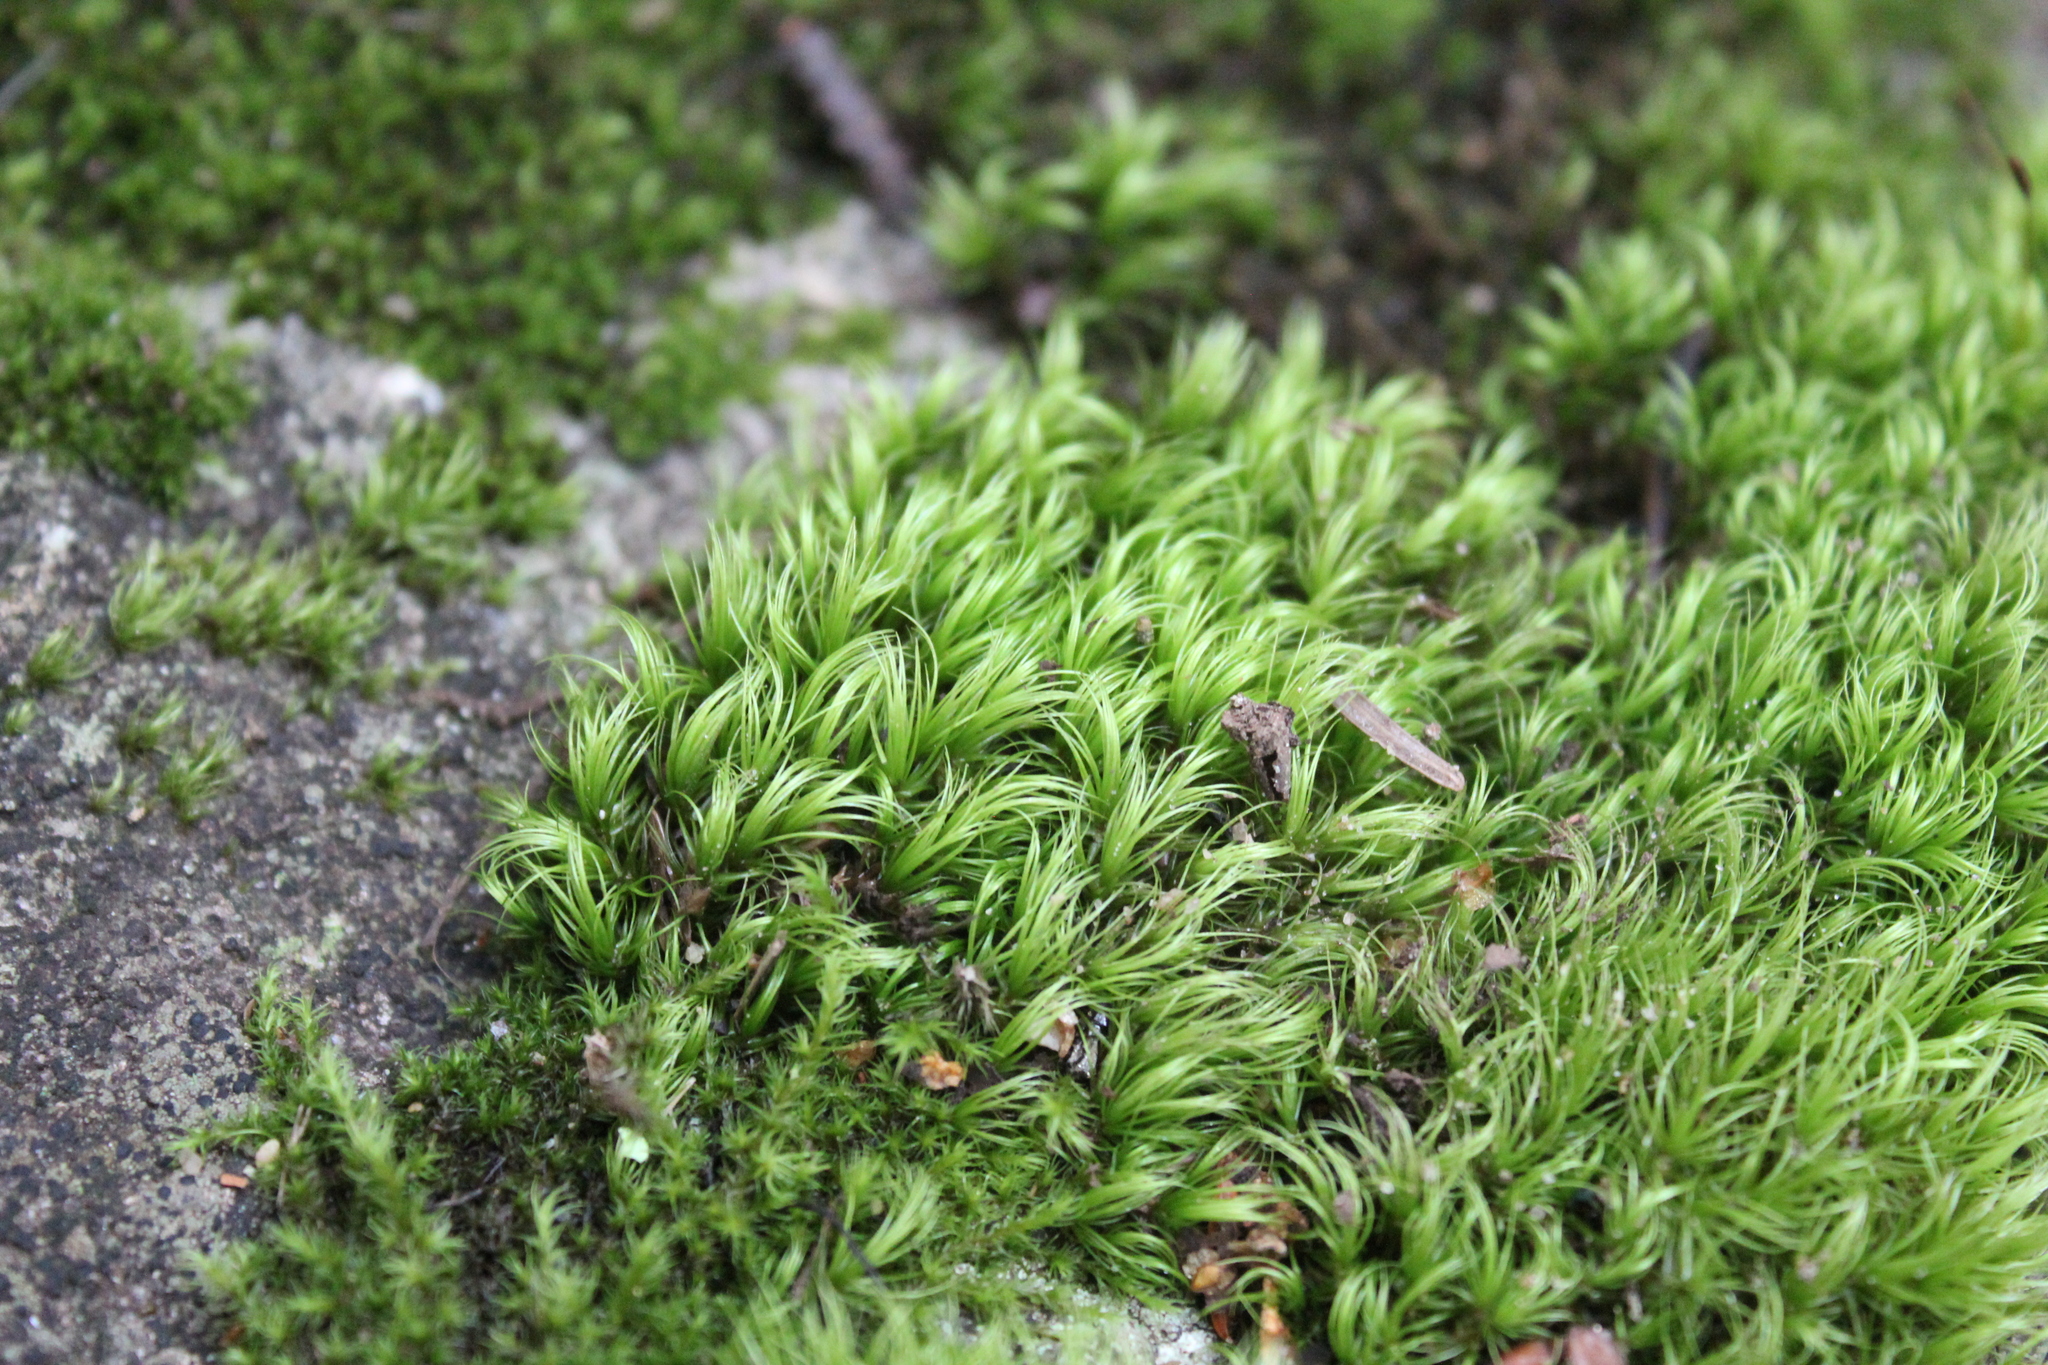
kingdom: Plantae
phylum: Bryophyta
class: Bryopsida
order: Dicranales
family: Dicranaceae
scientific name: Dicranaceae
